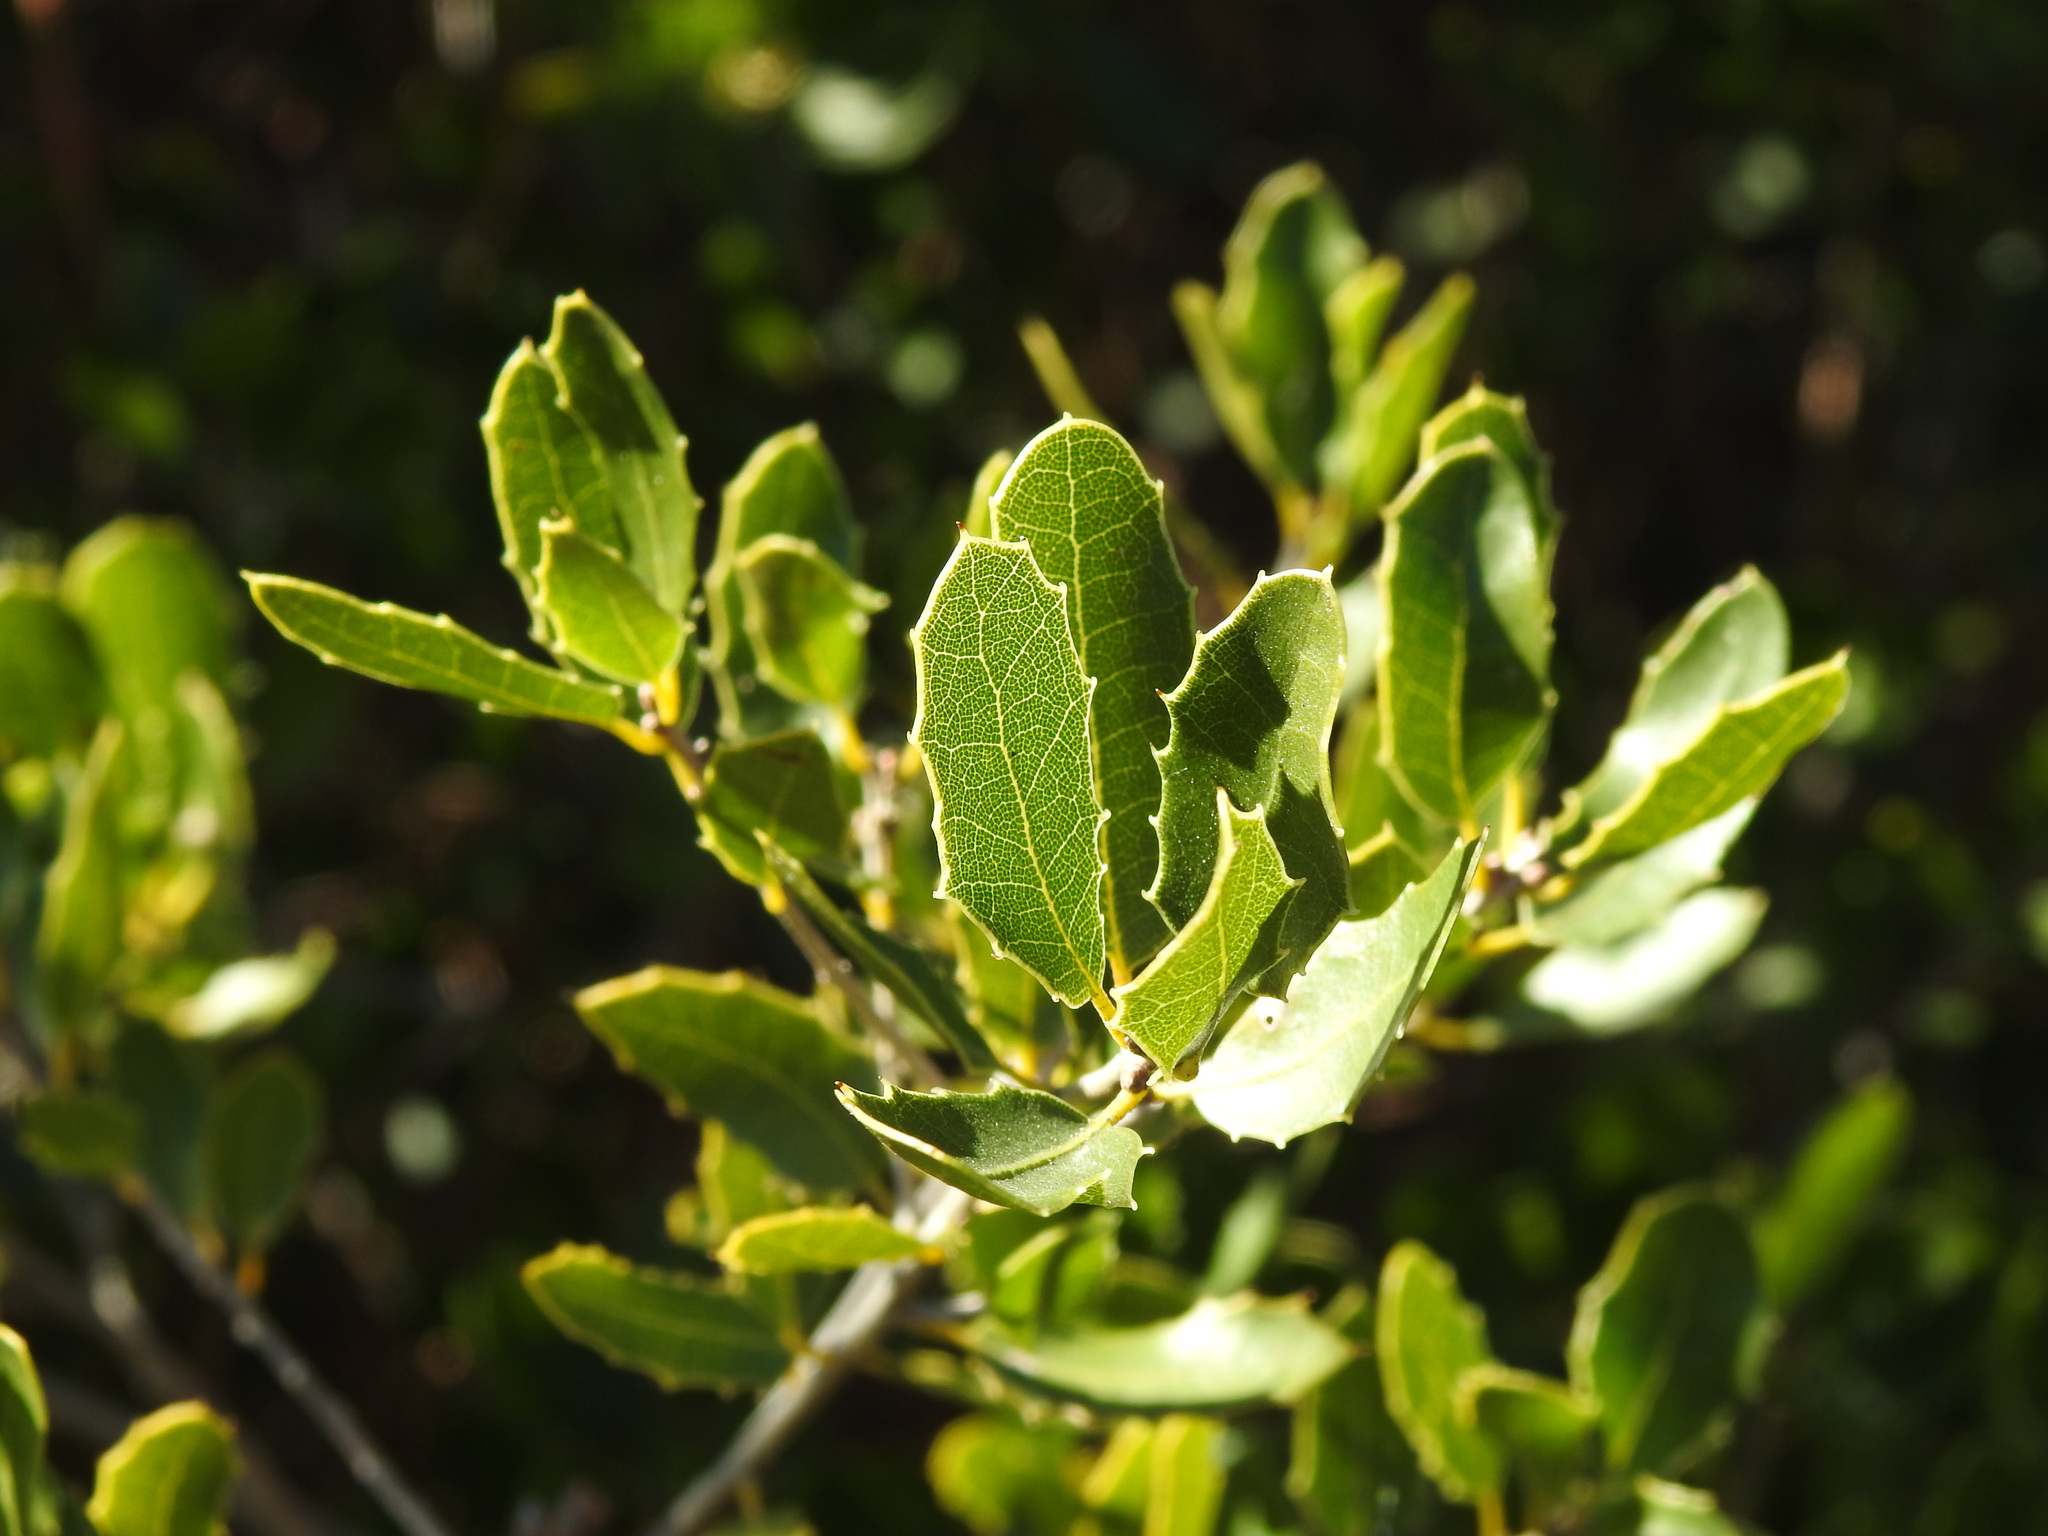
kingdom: Plantae
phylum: Tracheophyta
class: Magnoliopsida
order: Fagales
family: Fagaceae
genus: Quercus
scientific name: Quercus coccifera
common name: Kermes oak
